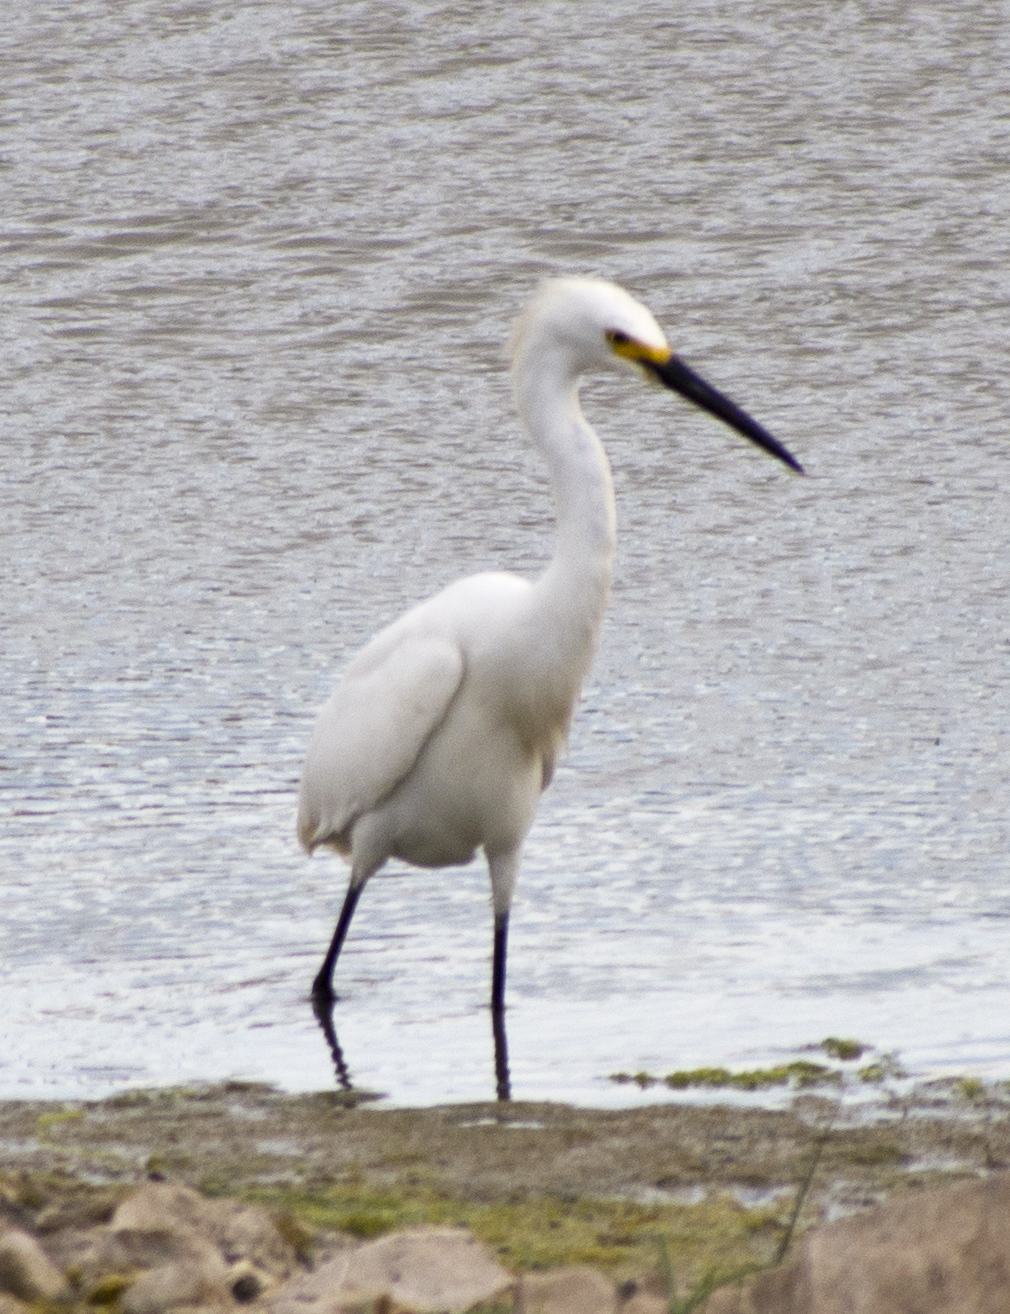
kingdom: Animalia
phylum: Chordata
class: Aves
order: Pelecaniformes
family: Ardeidae
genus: Egretta
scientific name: Egretta thula
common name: Snowy egret
